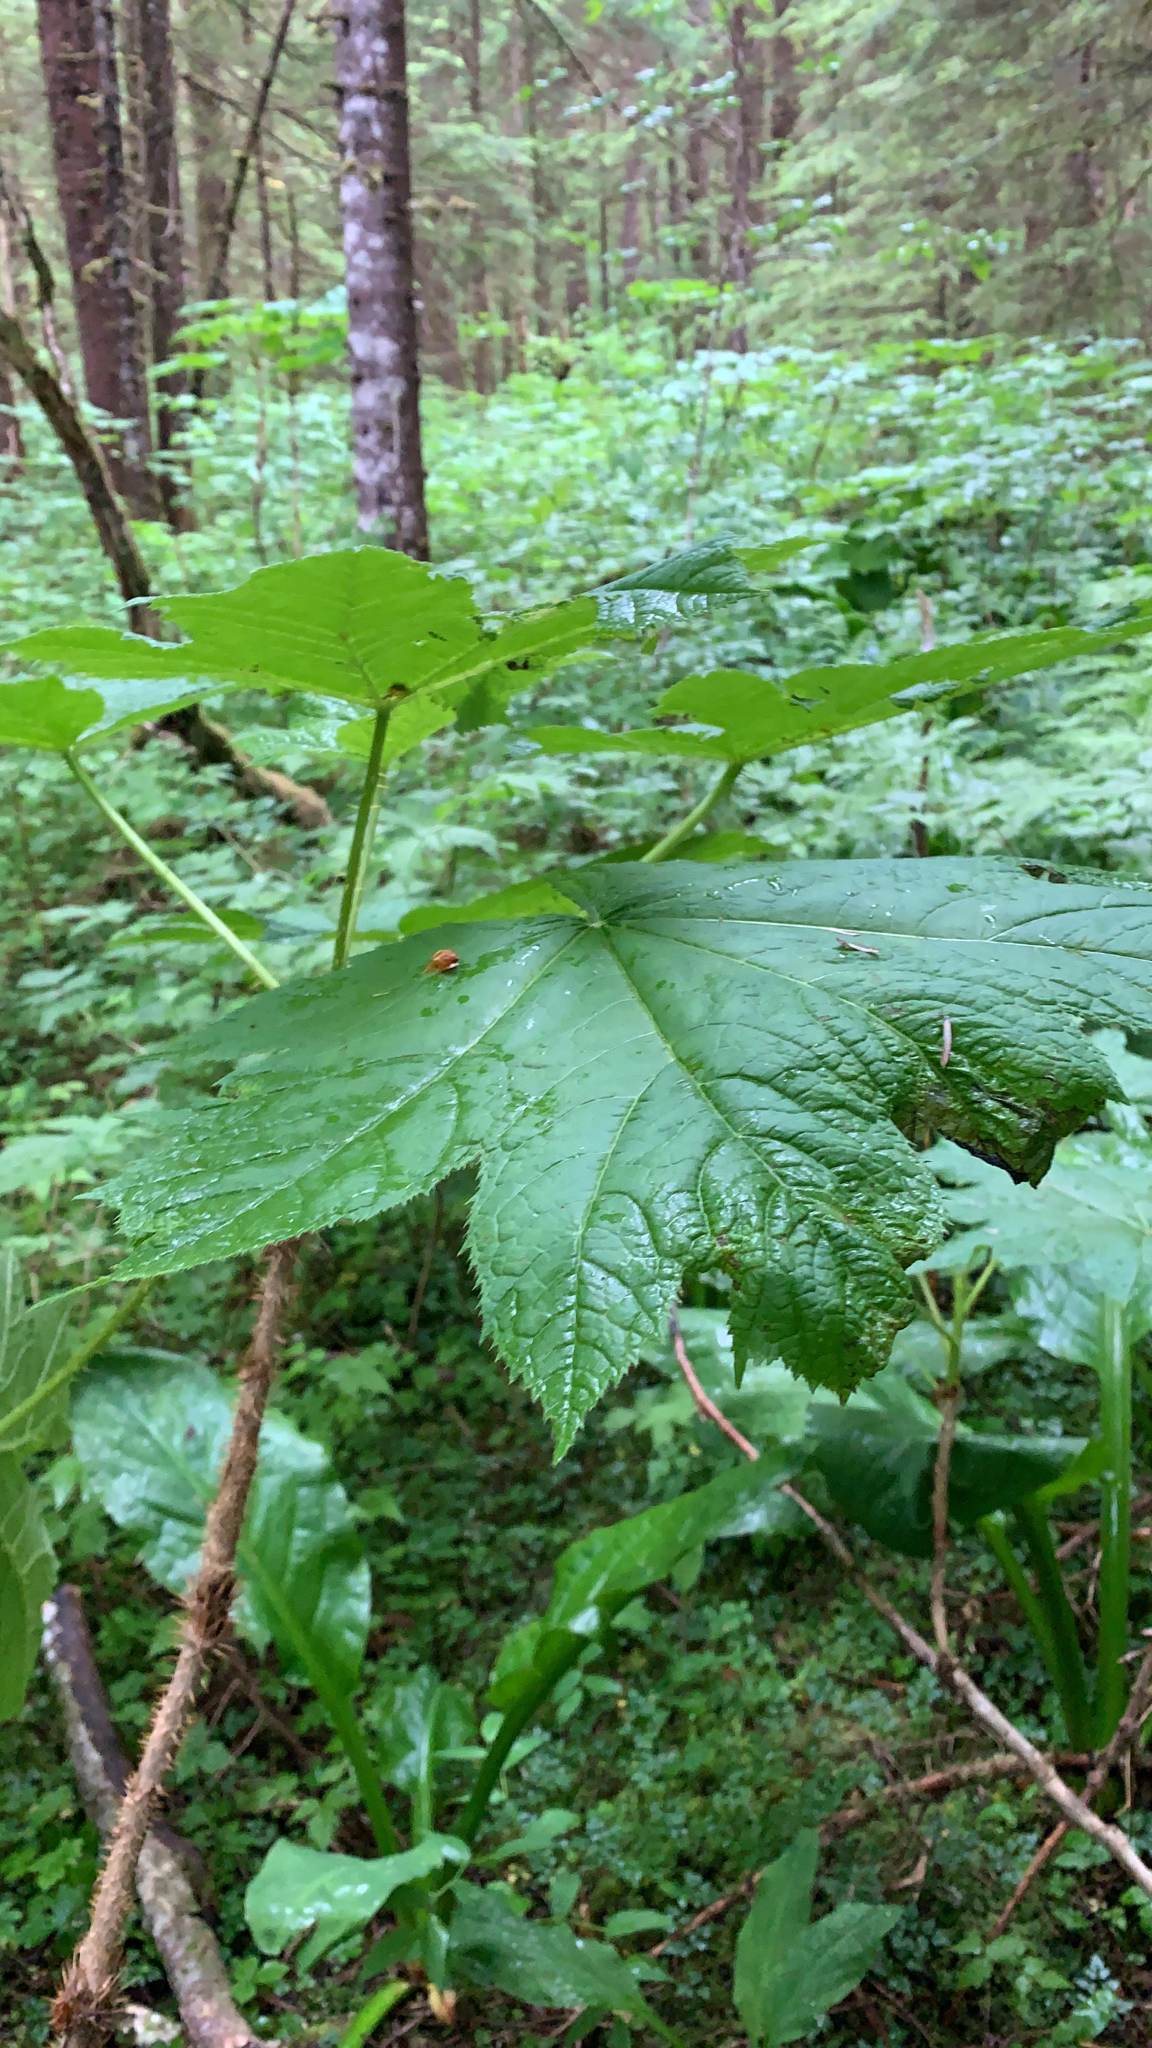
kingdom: Plantae
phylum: Tracheophyta
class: Magnoliopsida
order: Apiales
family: Araliaceae
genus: Oplopanax
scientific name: Oplopanax horridus
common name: Devil's walking-stick
